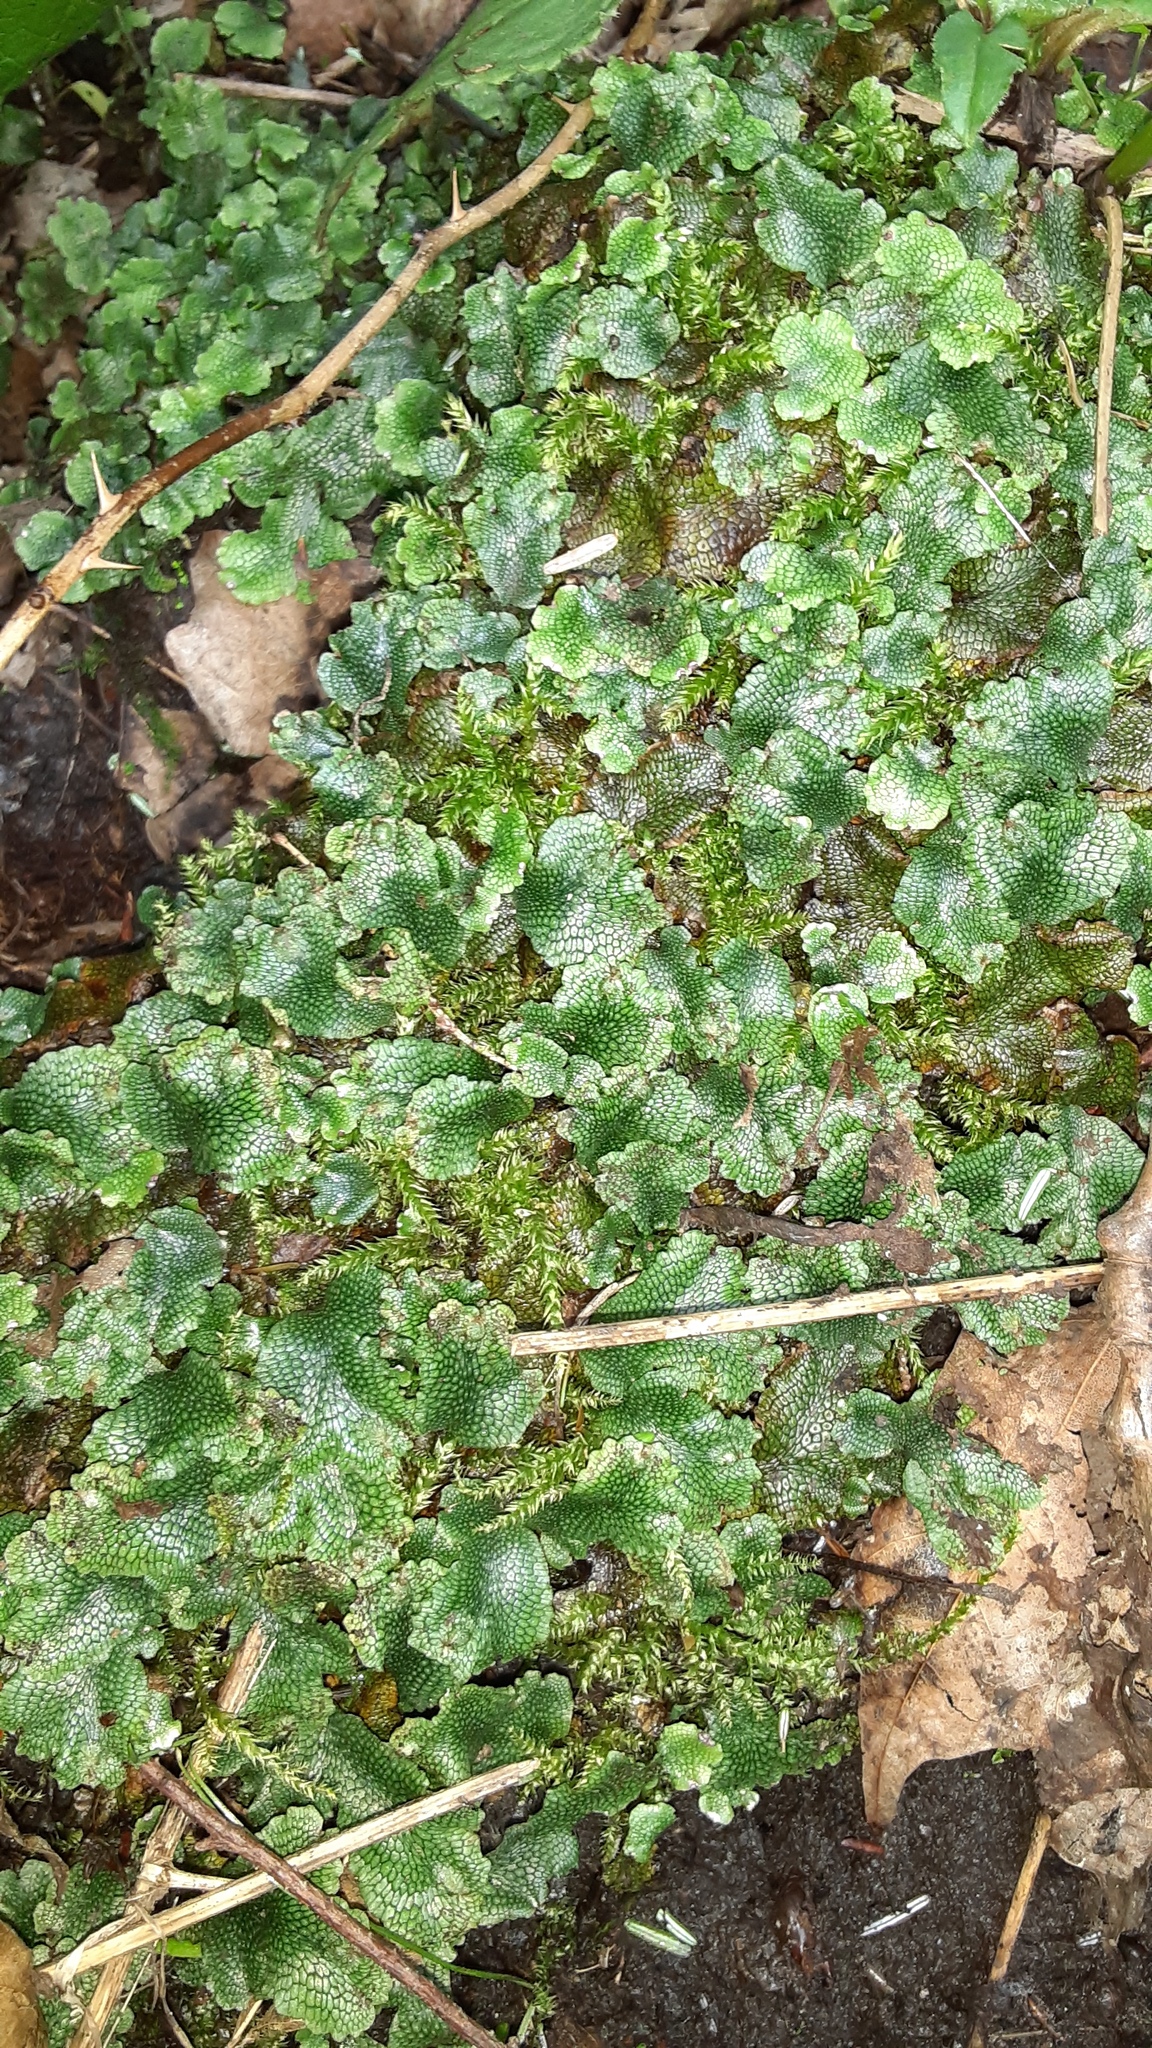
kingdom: Plantae
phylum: Marchantiophyta
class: Marchantiopsida
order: Marchantiales
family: Conocephalaceae
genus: Conocephalum
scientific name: Conocephalum salebrosum
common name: Cat-tongue liverwort
